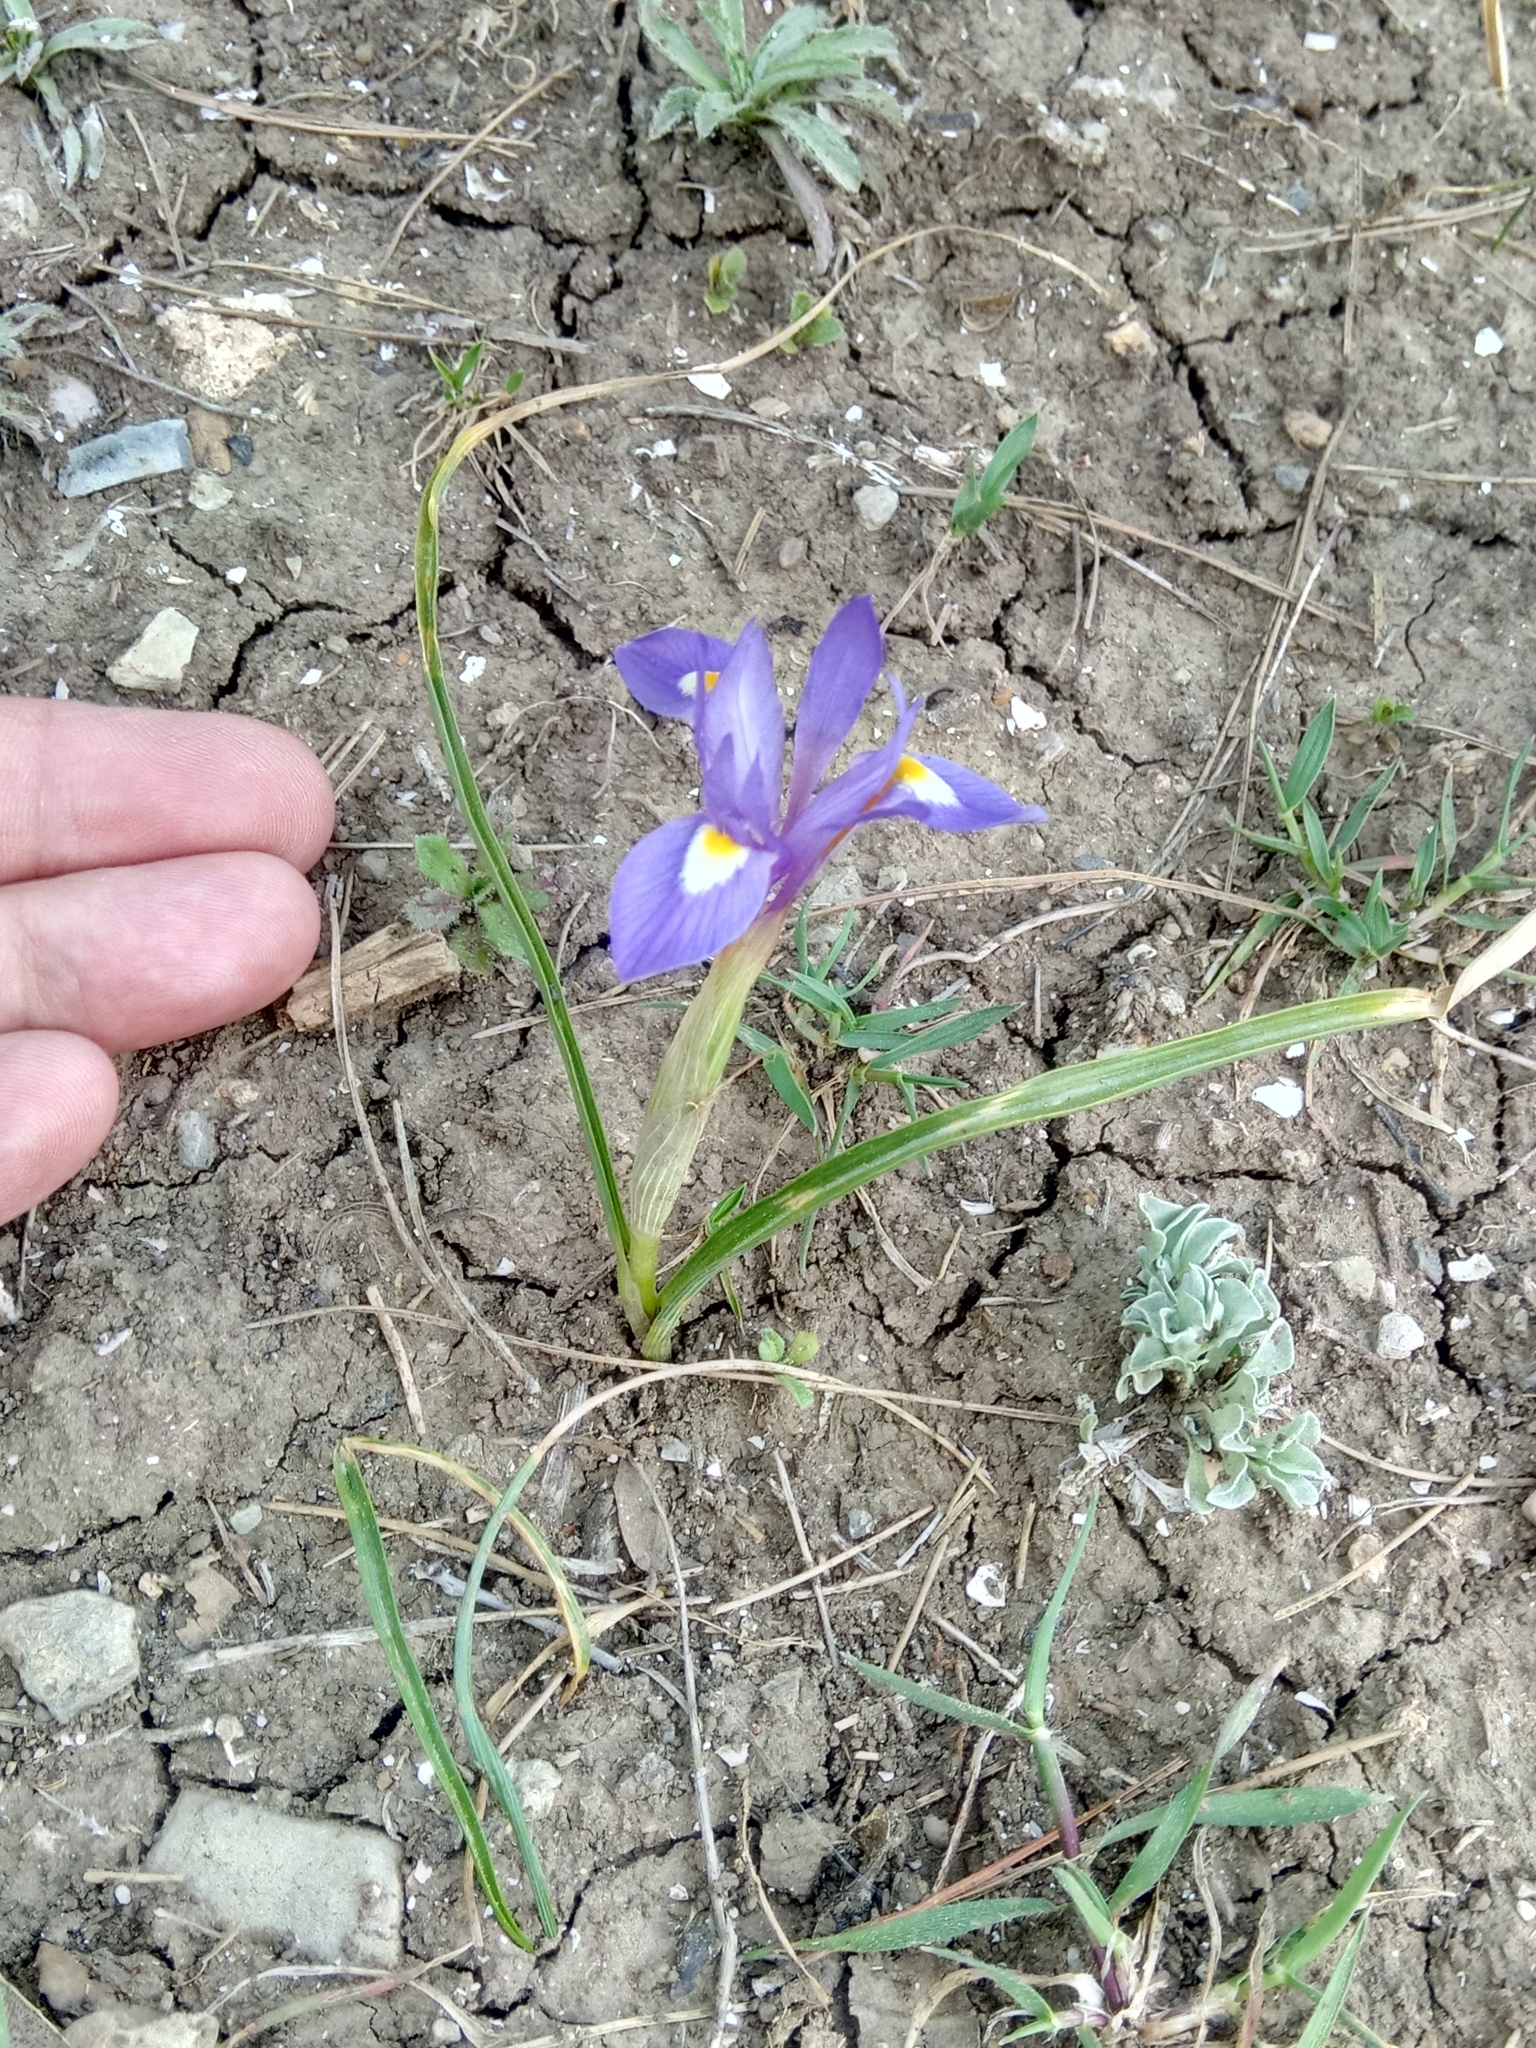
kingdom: Plantae
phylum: Tracheophyta
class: Liliopsida
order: Asparagales
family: Iridaceae
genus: Moraea
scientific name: Moraea sisyrinchium
